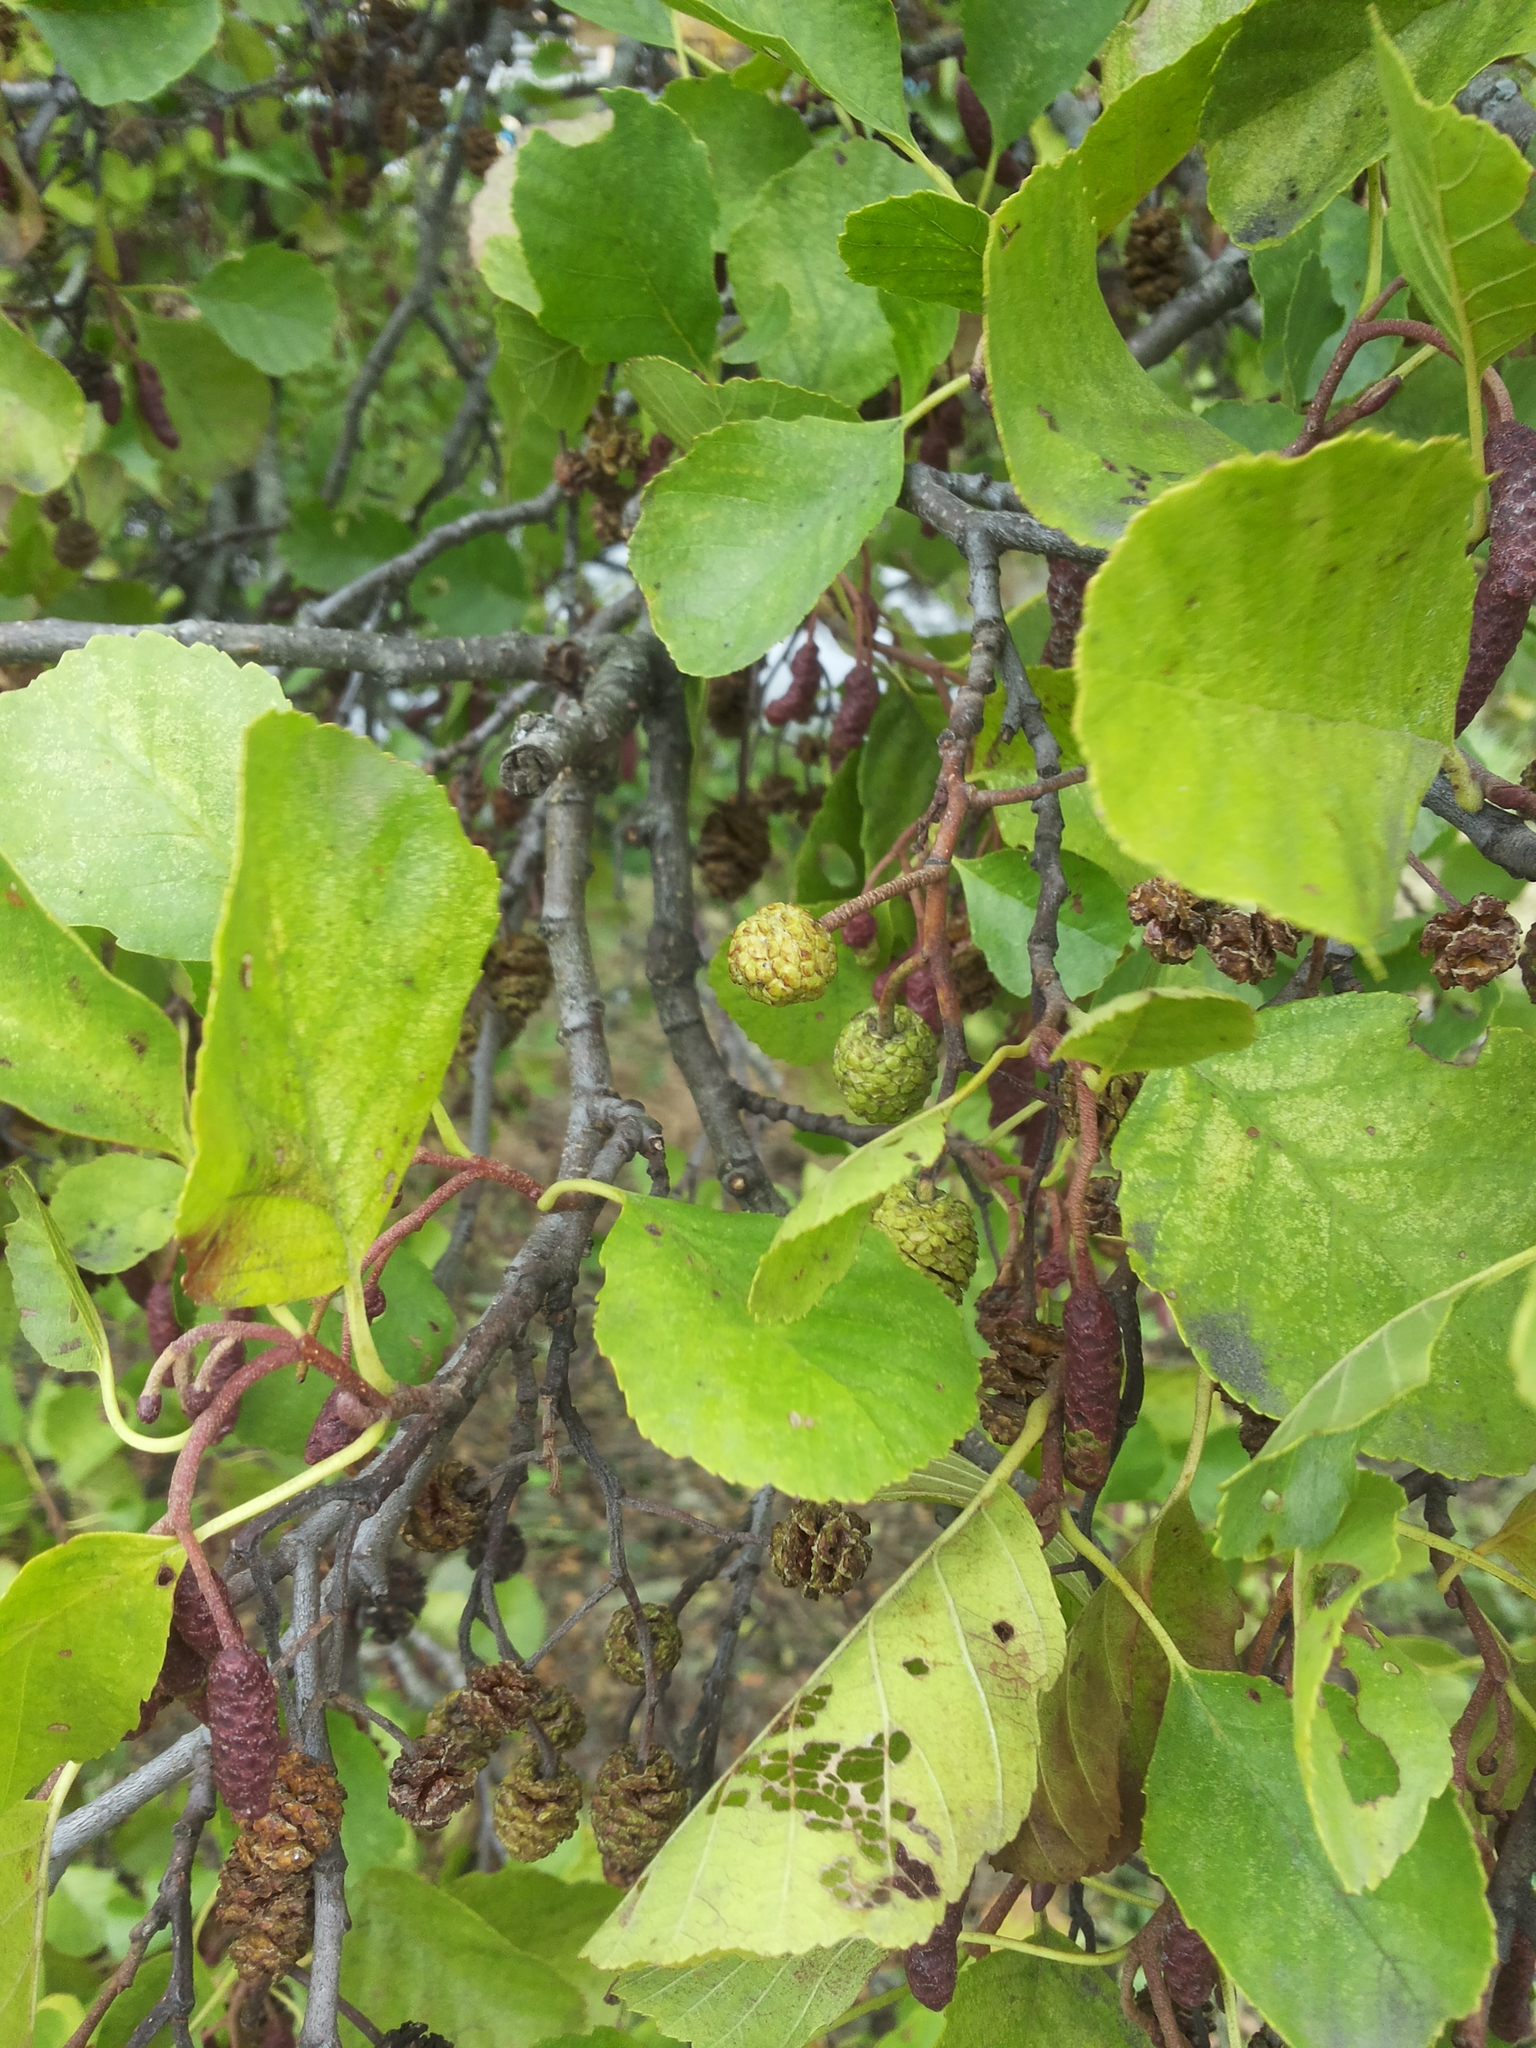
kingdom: Plantae
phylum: Tracheophyta
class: Magnoliopsida
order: Fagales
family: Betulaceae
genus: Alnus
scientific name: Alnus glutinosa
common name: Black alder
